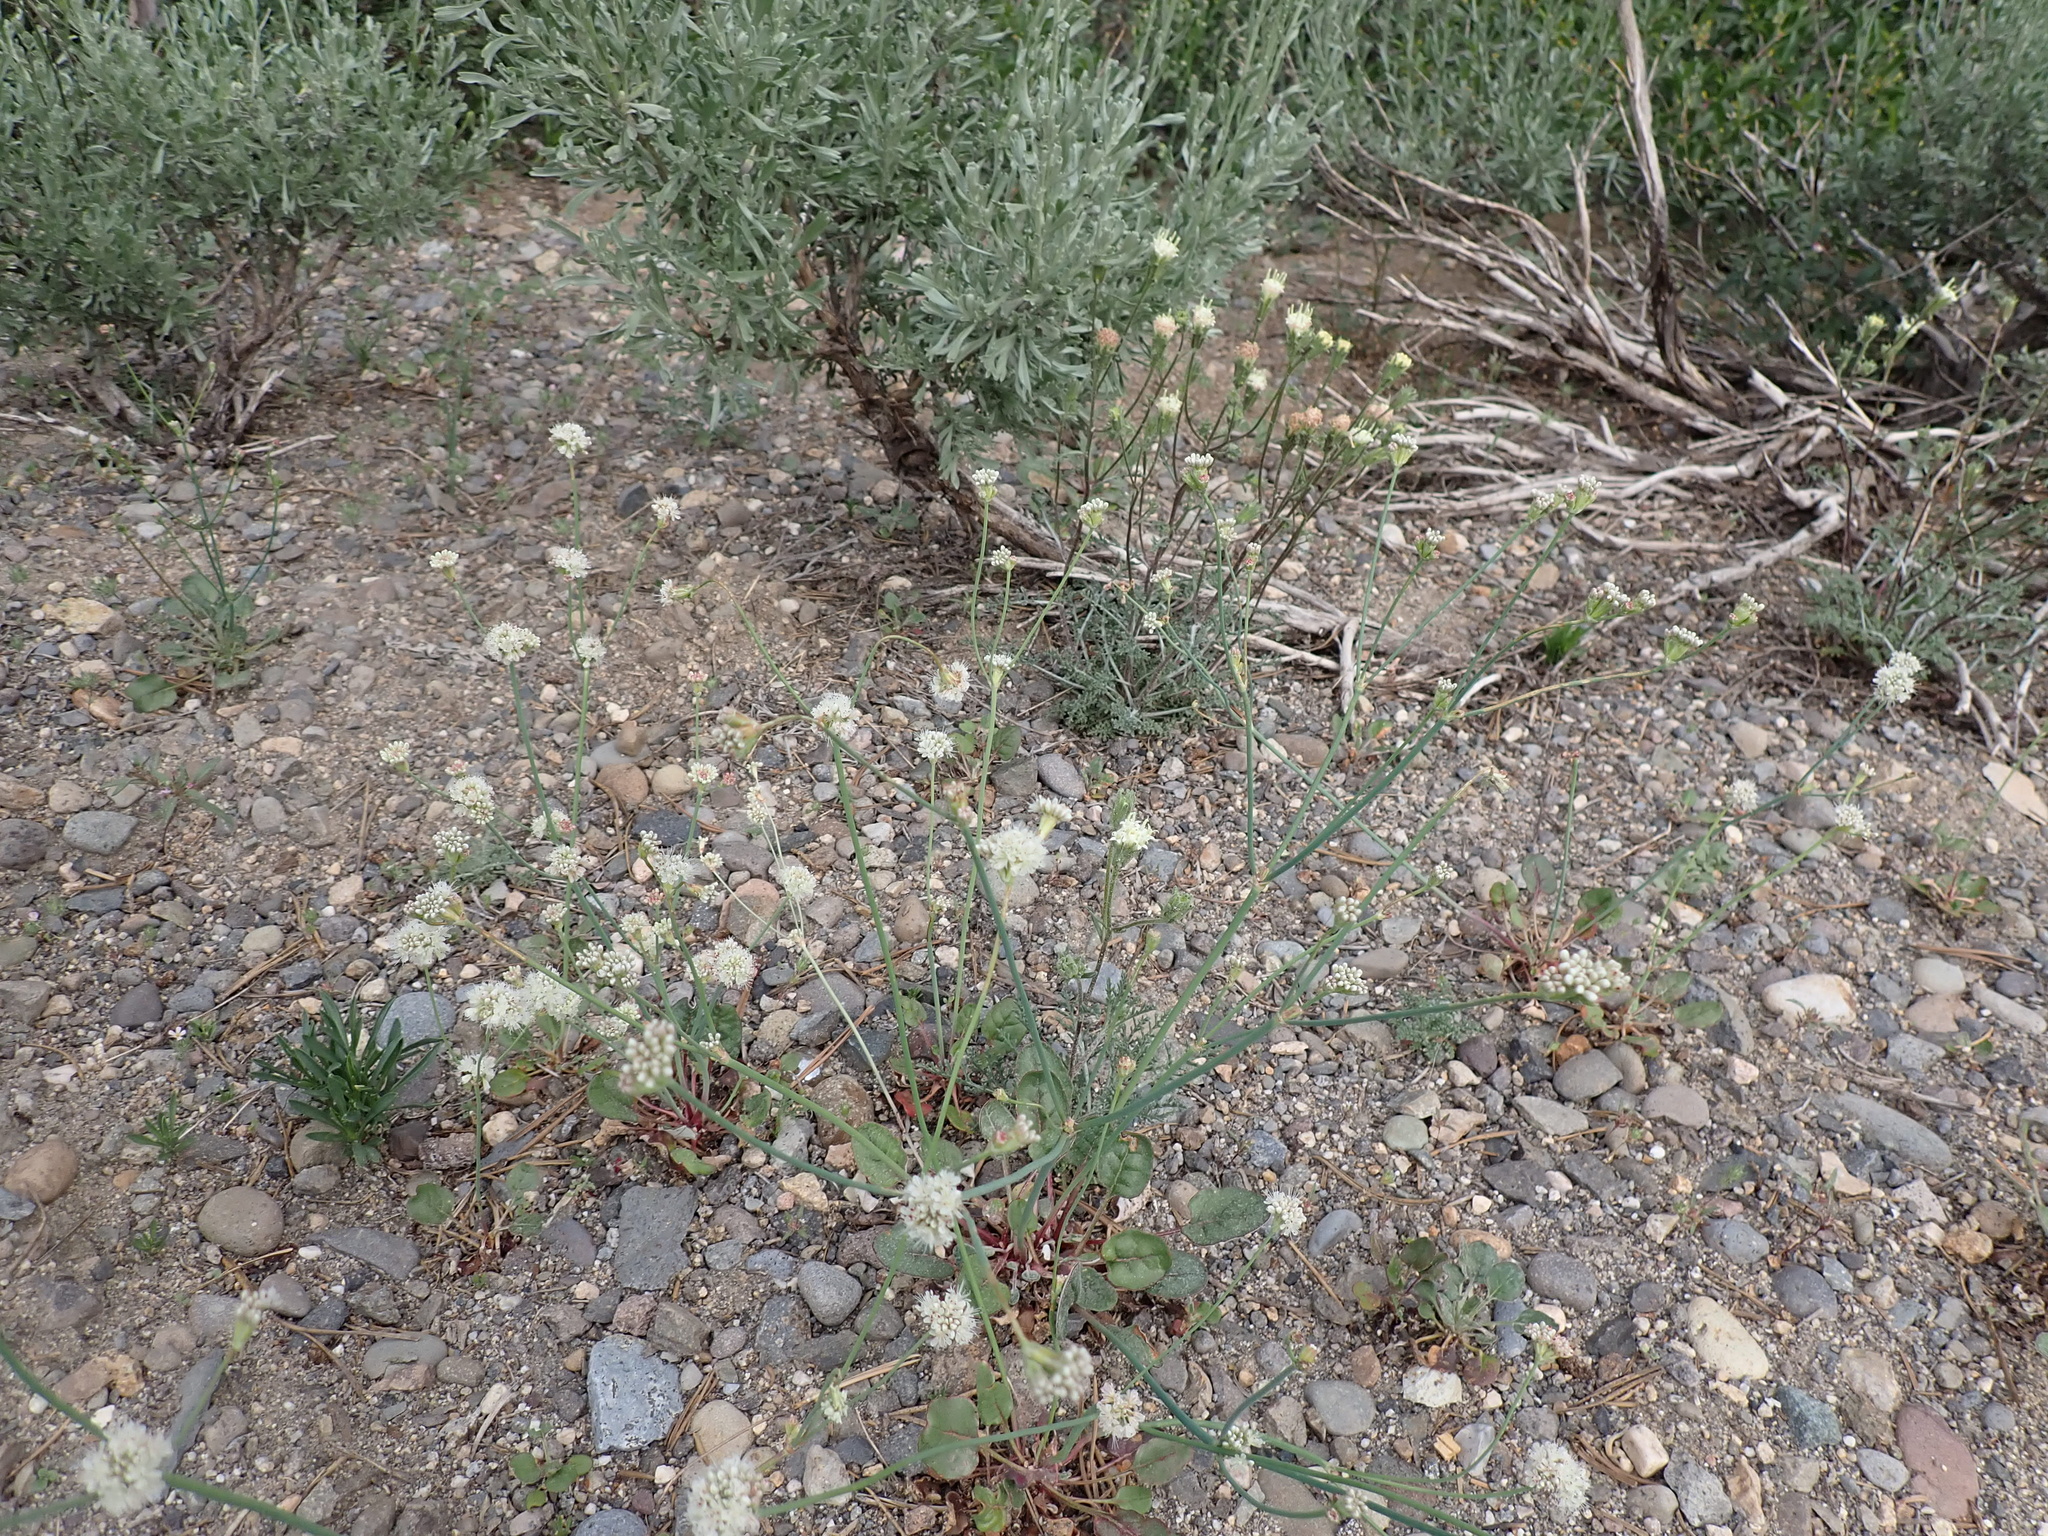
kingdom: Plantae
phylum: Tracheophyta
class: Magnoliopsida
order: Caryophyllales
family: Polygonaceae
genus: Eriogonum
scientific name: Eriogonum nudum
